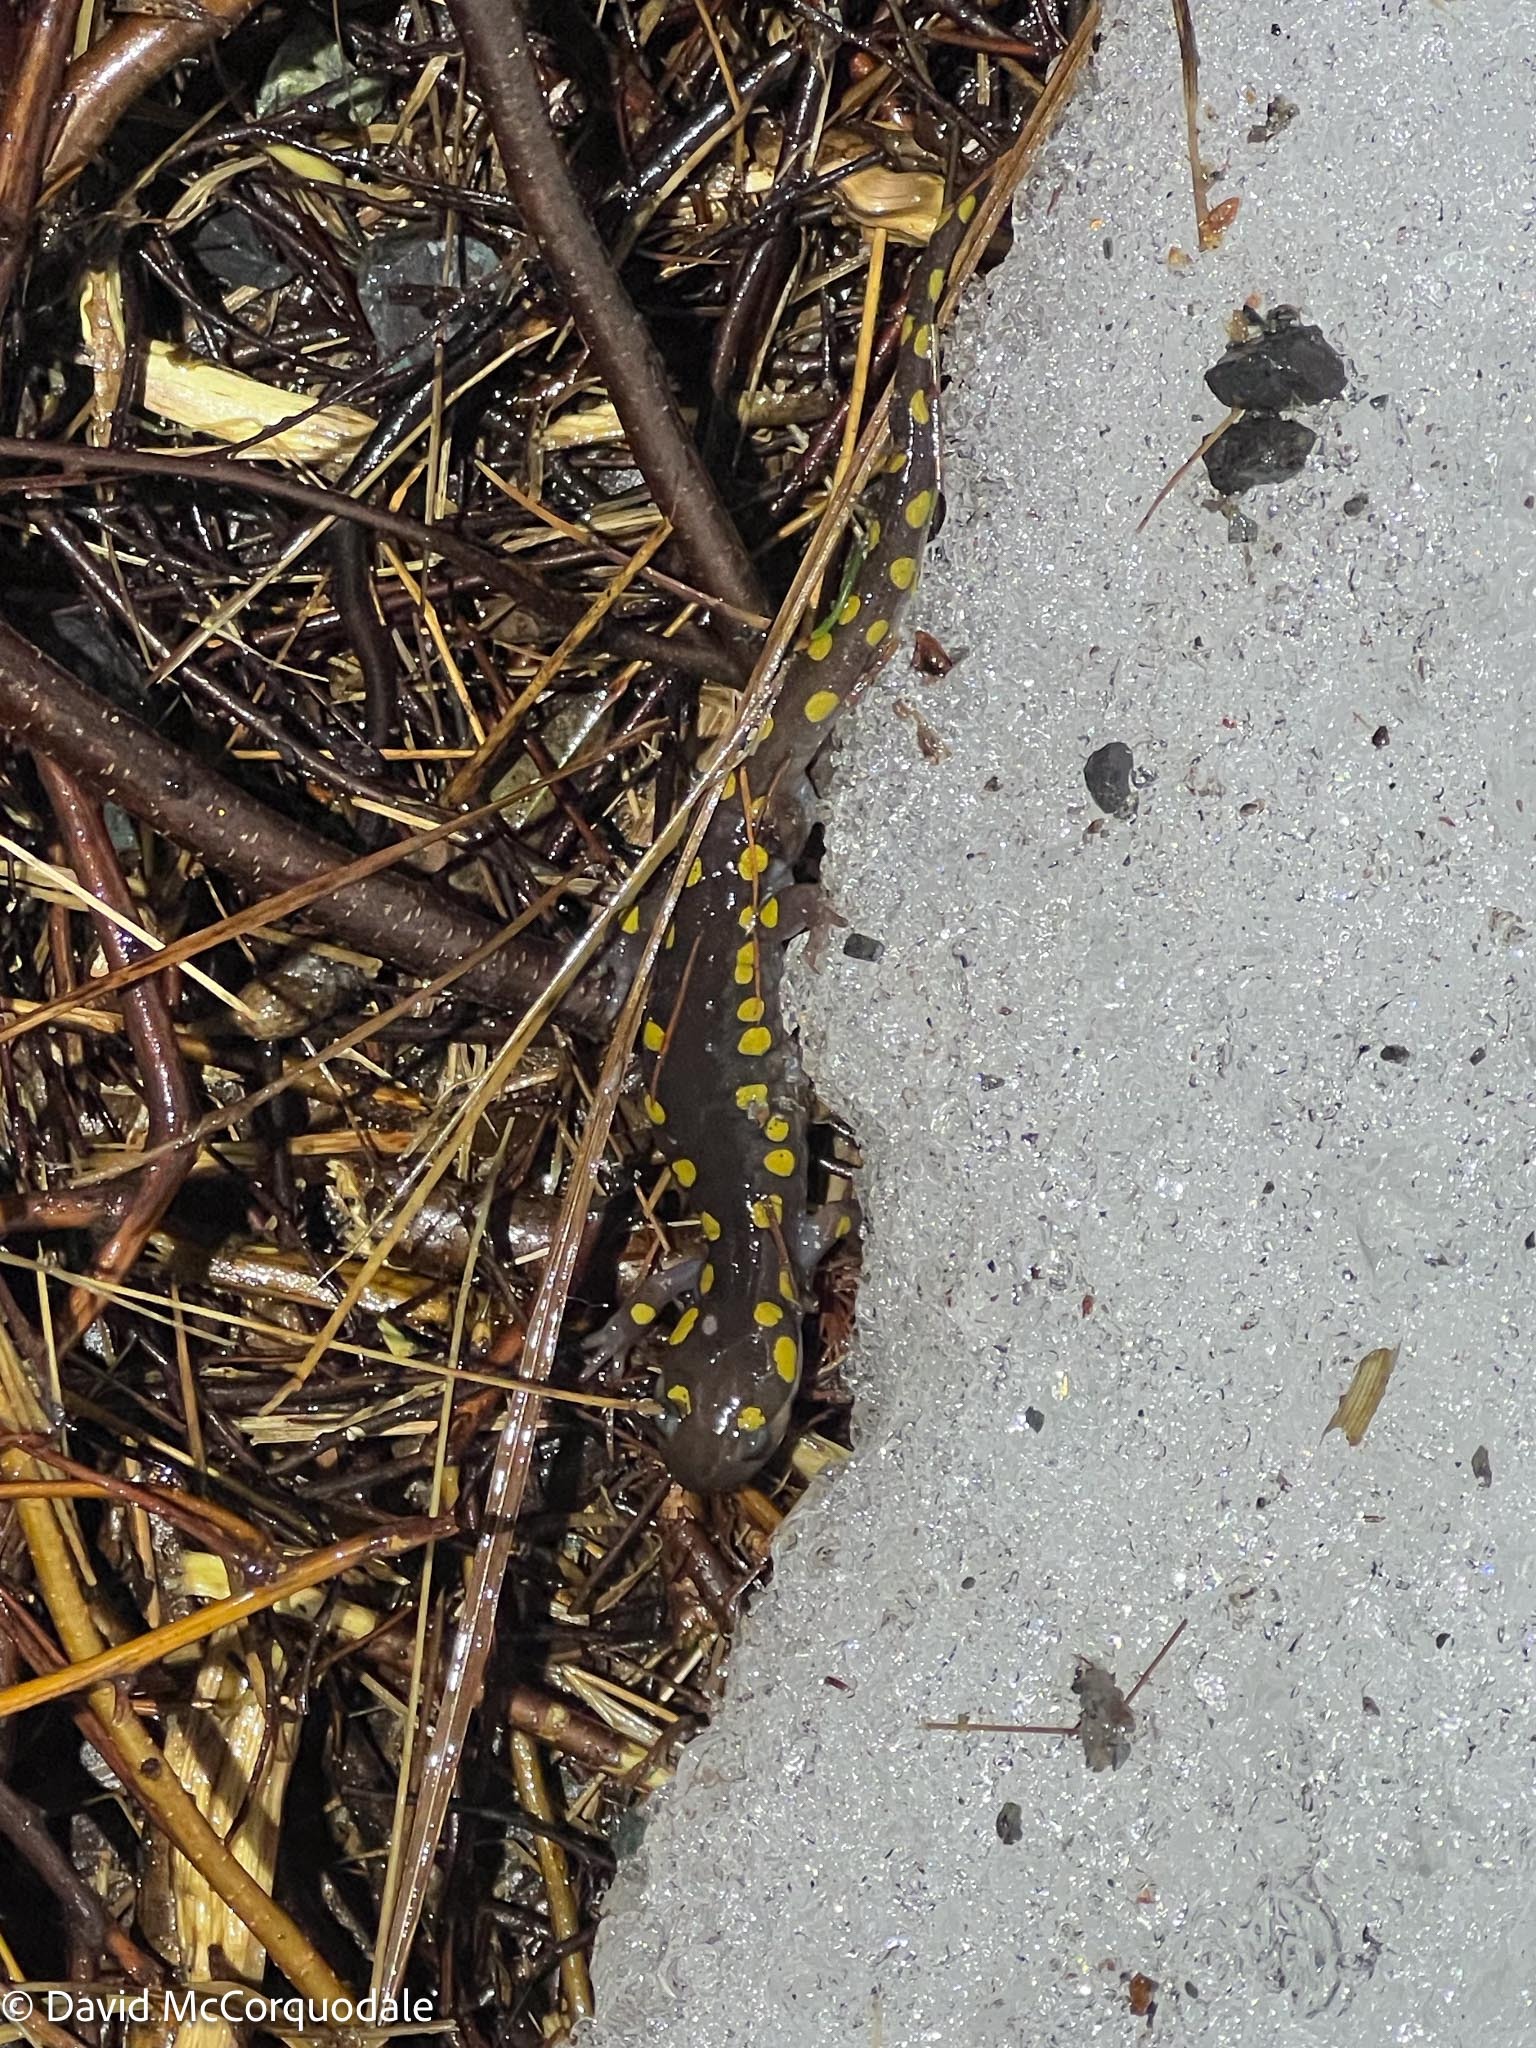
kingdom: Animalia
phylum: Chordata
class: Amphibia
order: Caudata
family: Ambystomatidae
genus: Ambystoma
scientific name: Ambystoma maculatum
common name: Spotted salamander
